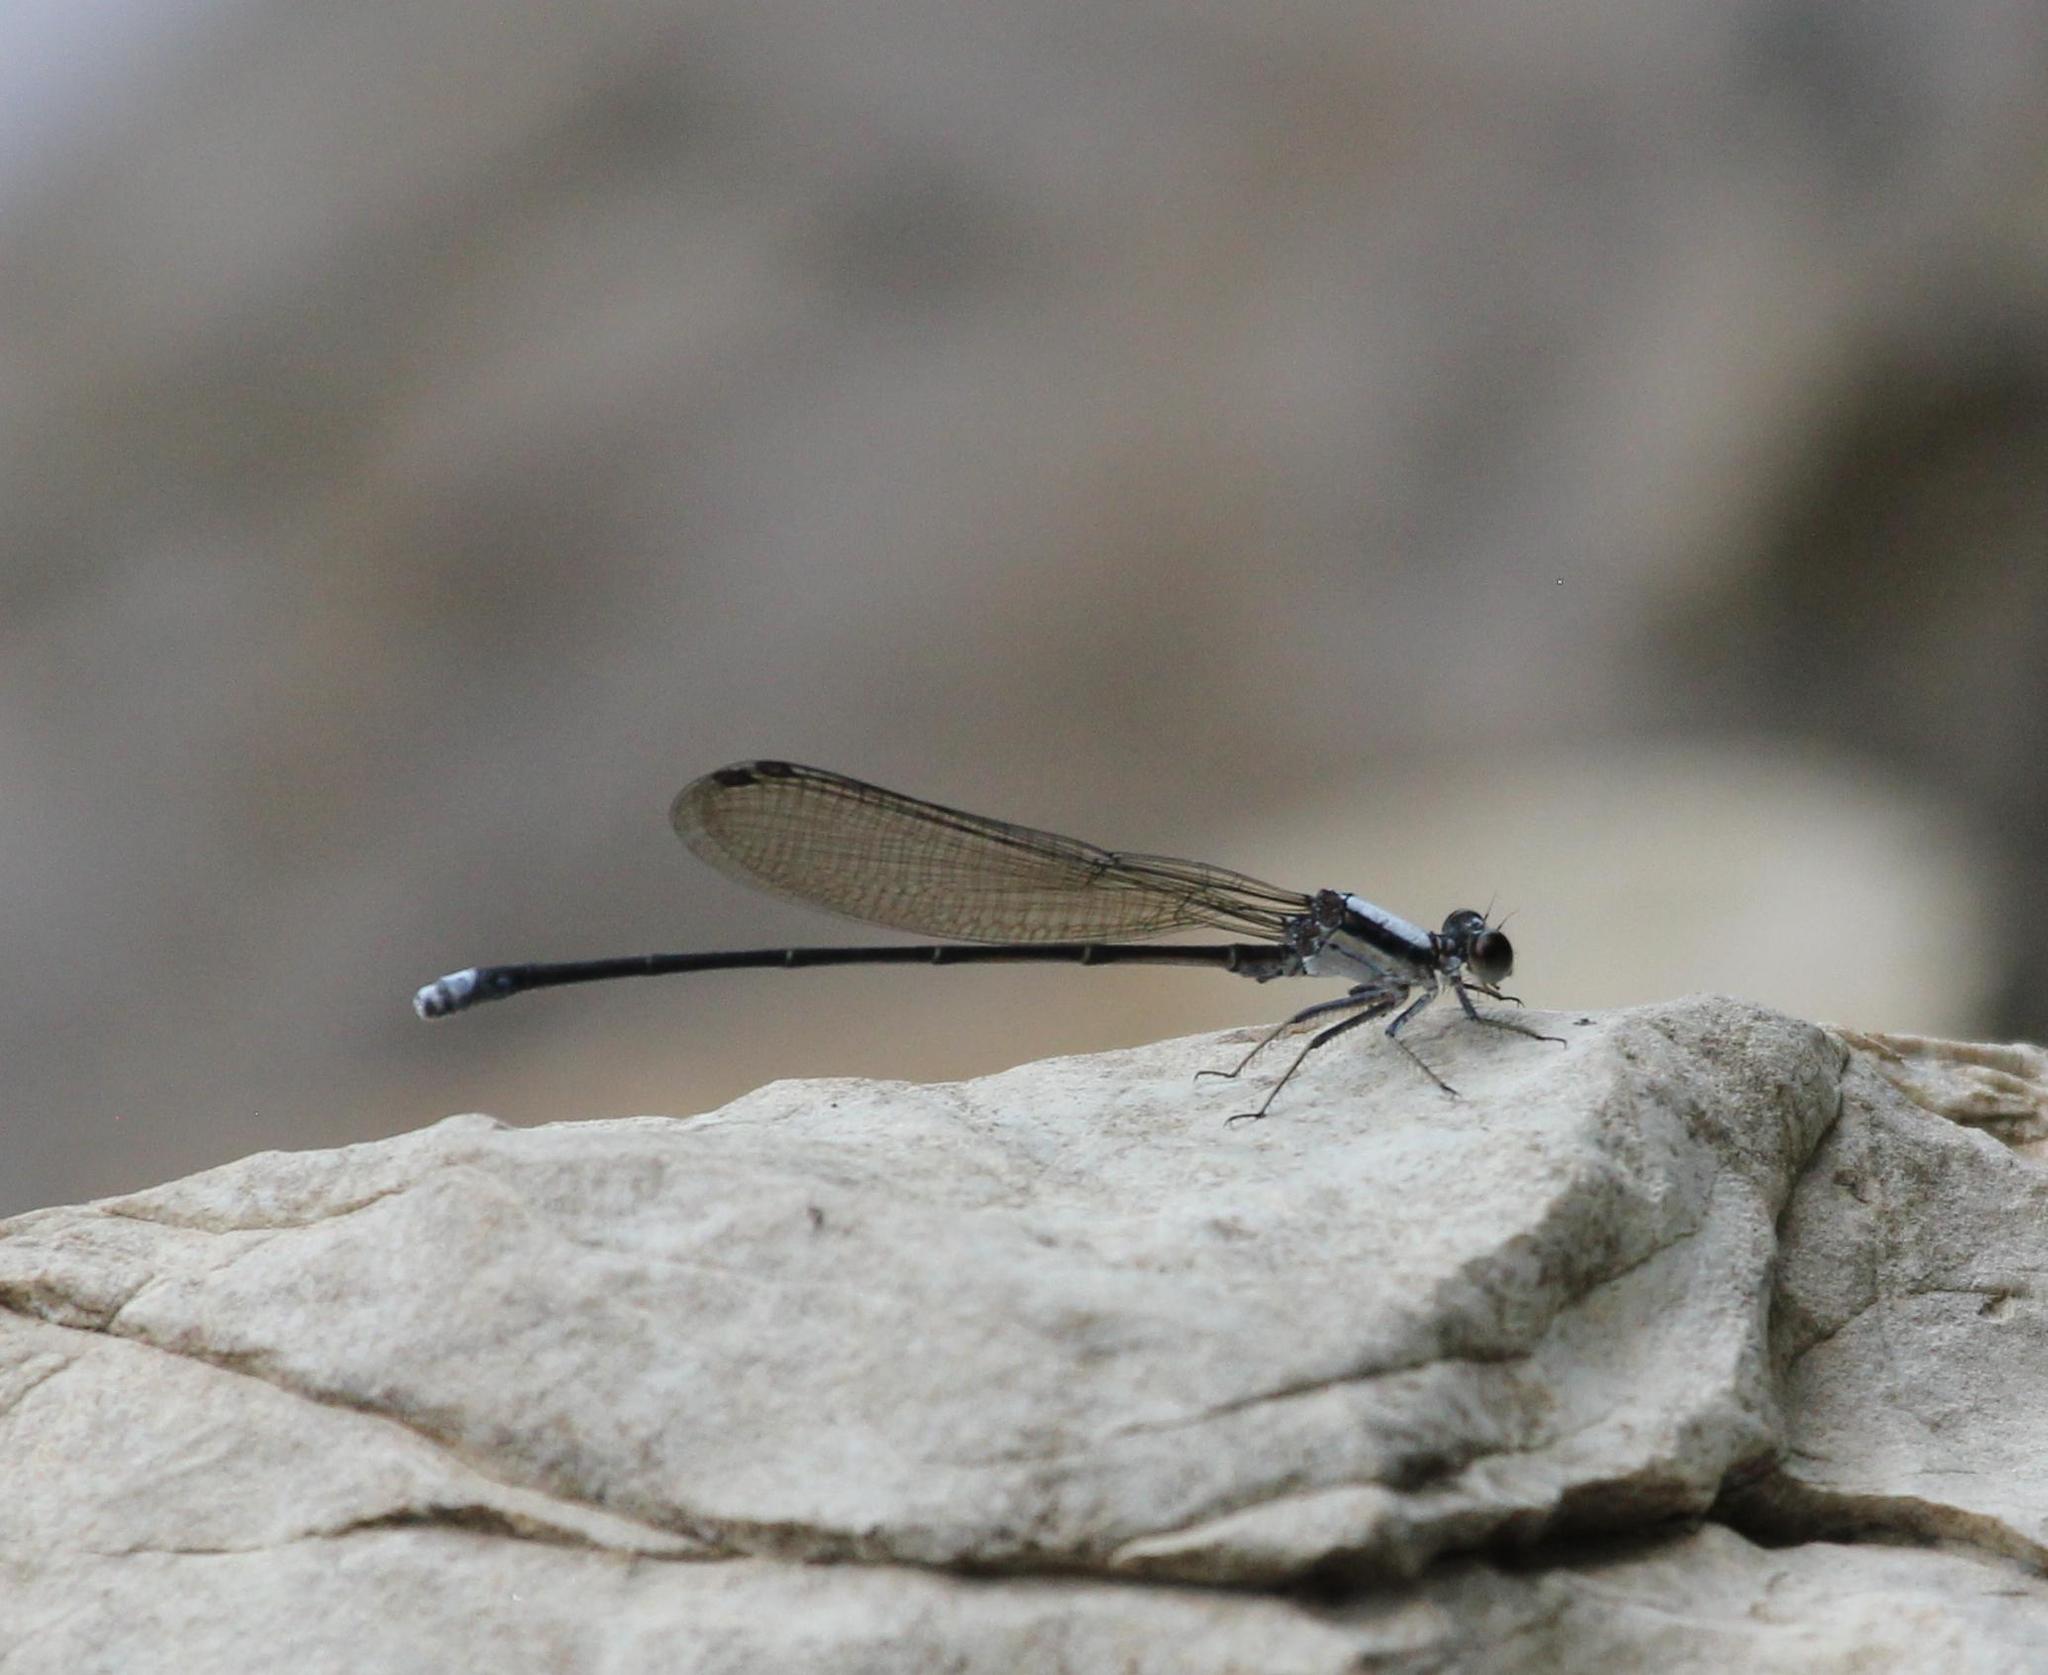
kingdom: Animalia
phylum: Arthropoda
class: Insecta
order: Odonata
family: Coenagrionidae
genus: Argia
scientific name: Argia moesta
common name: Powdered dancer
